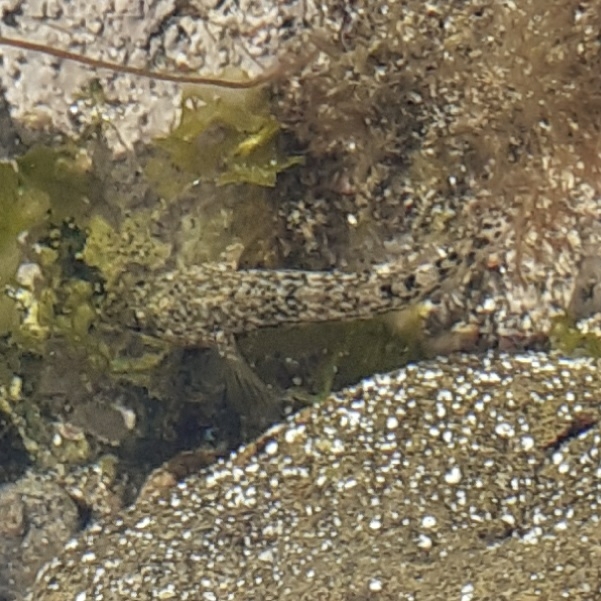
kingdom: Animalia
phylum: Chordata
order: Perciformes
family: Gobiidae
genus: Gobius
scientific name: Gobius cobitis
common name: Giant goby
